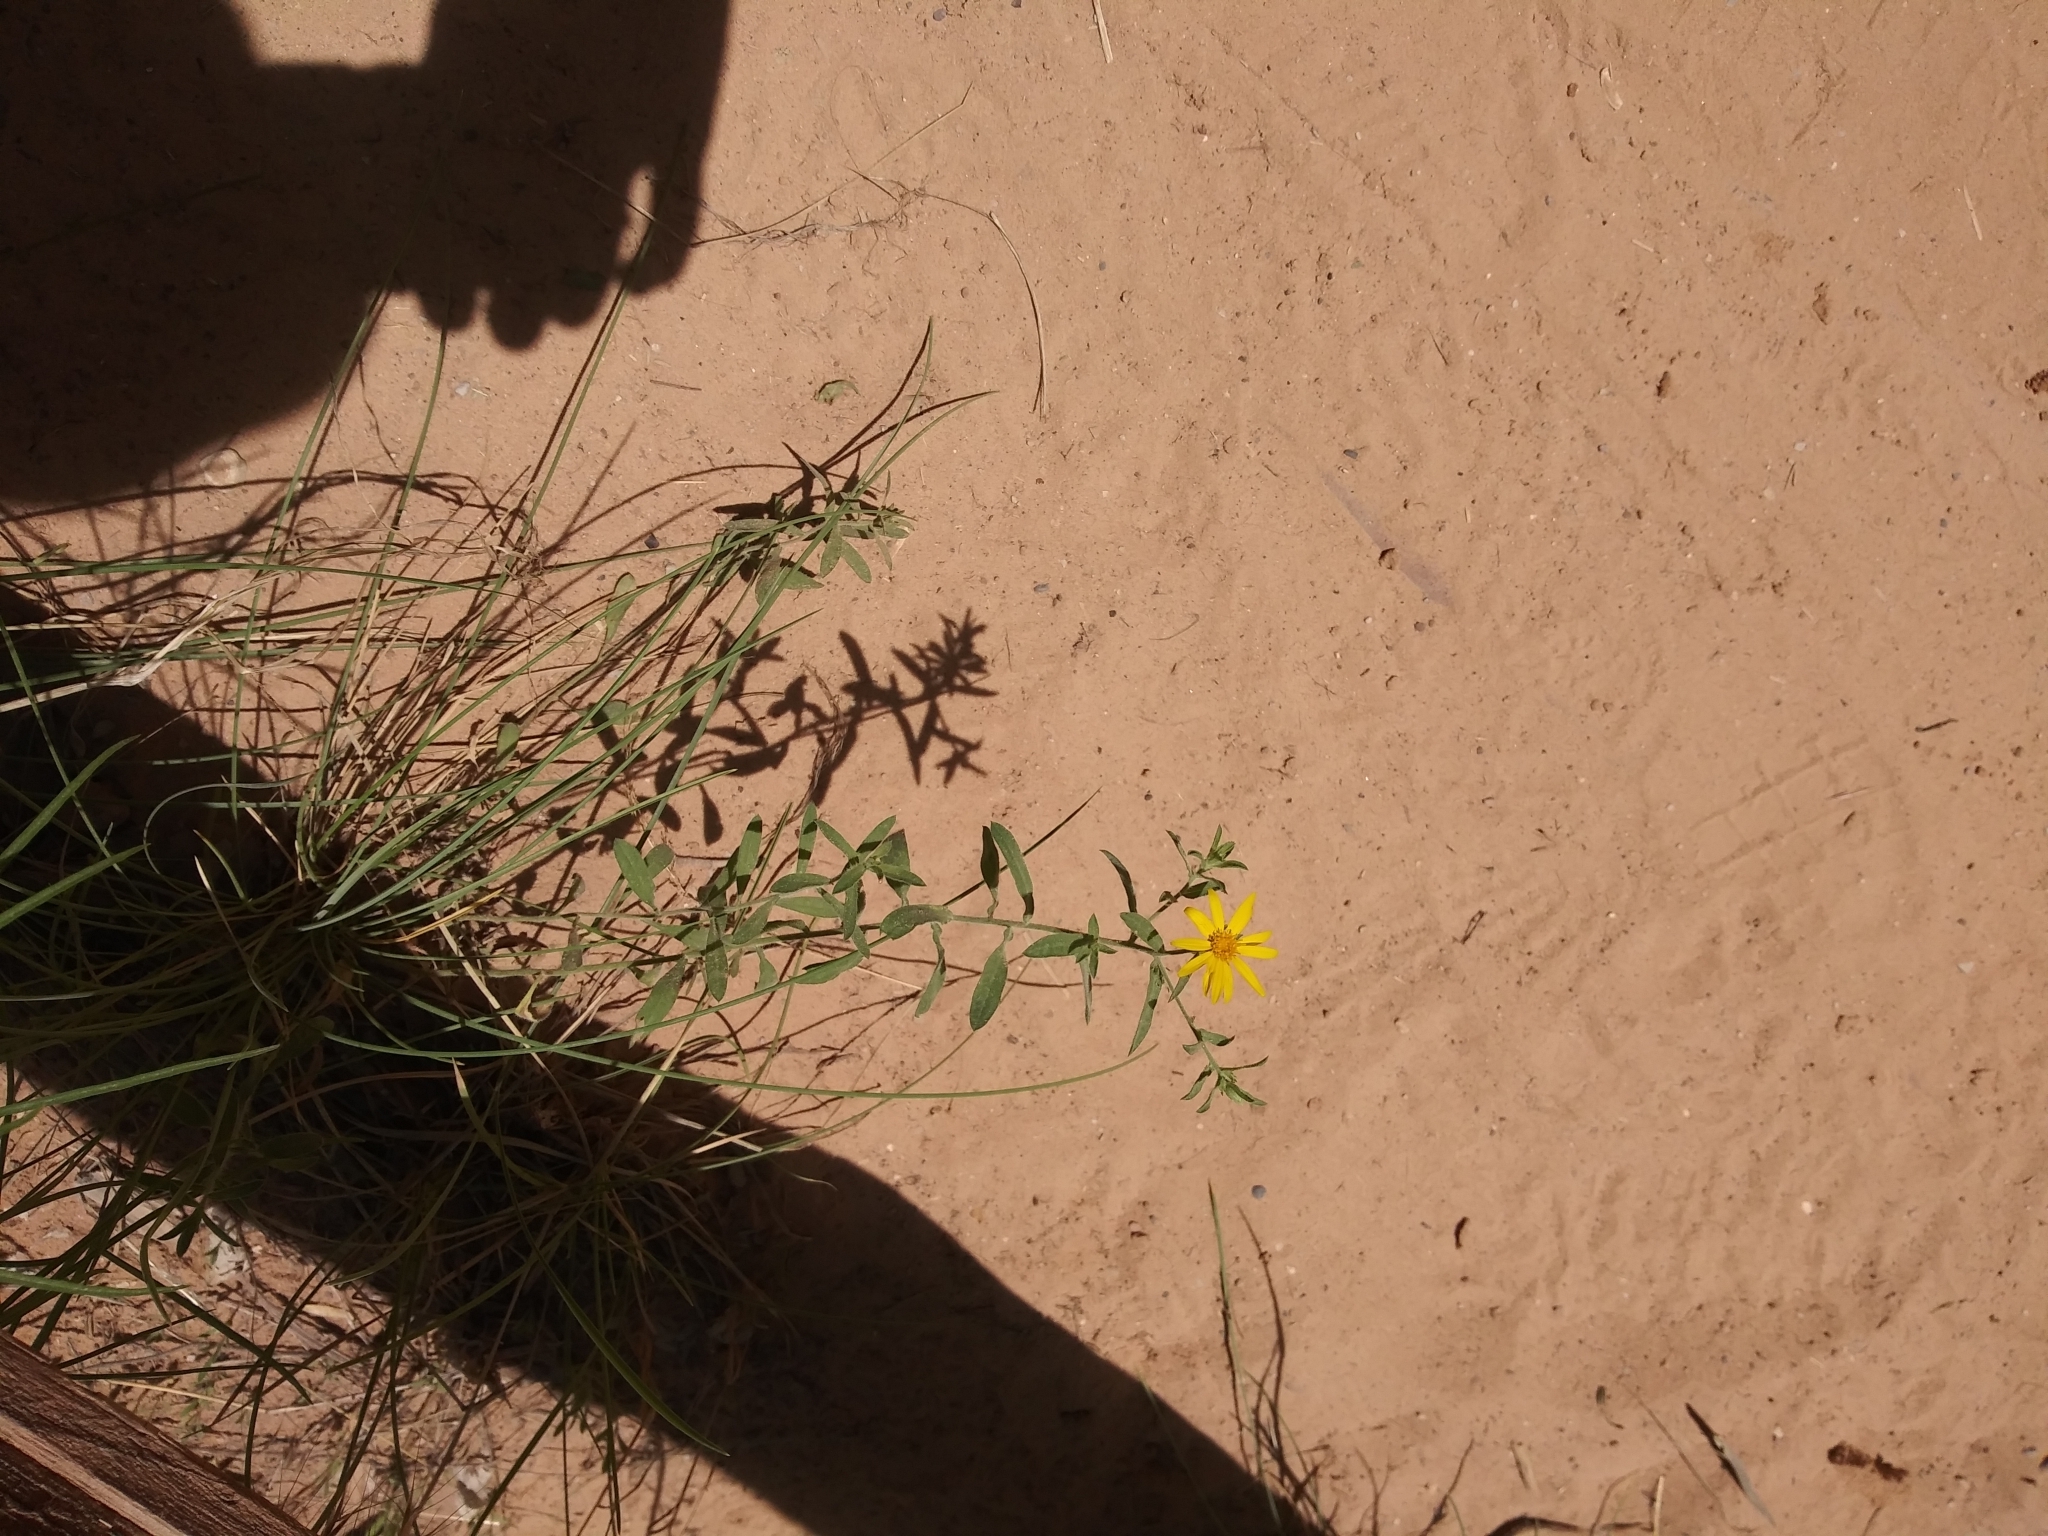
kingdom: Plantae
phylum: Tracheophyta
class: Magnoliopsida
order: Asterales
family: Asteraceae
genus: Heterotheca
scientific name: Heterotheca polothrix
